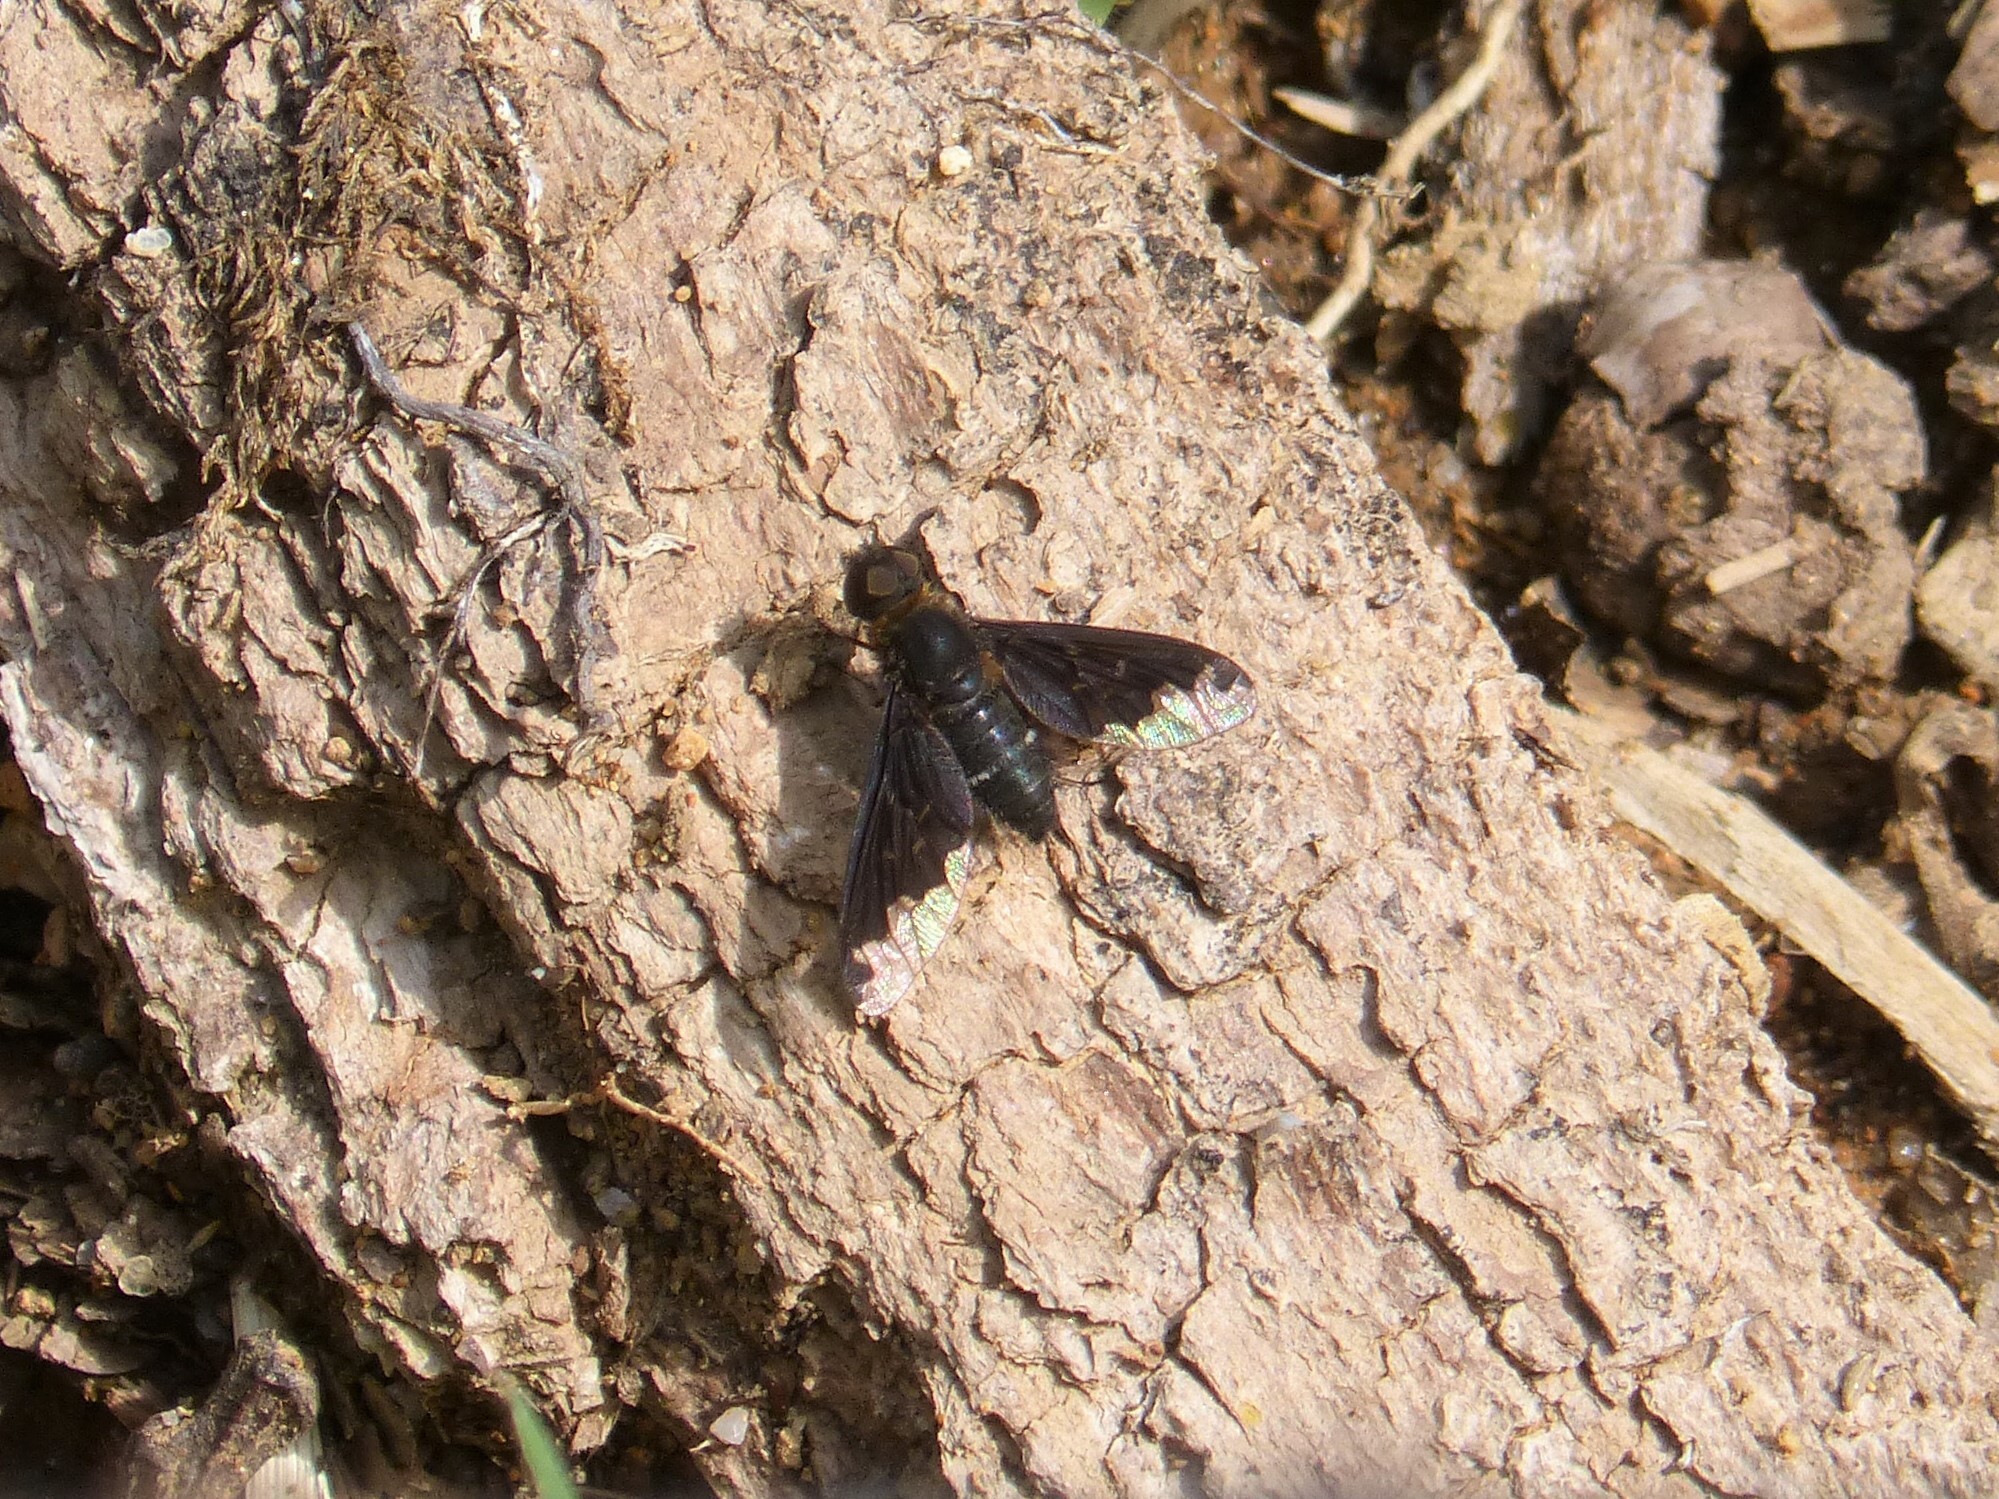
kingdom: Animalia
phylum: Arthropoda
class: Insecta
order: Diptera
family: Bombyliidae
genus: Hemipenthes
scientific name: Hemipenthes velutina
